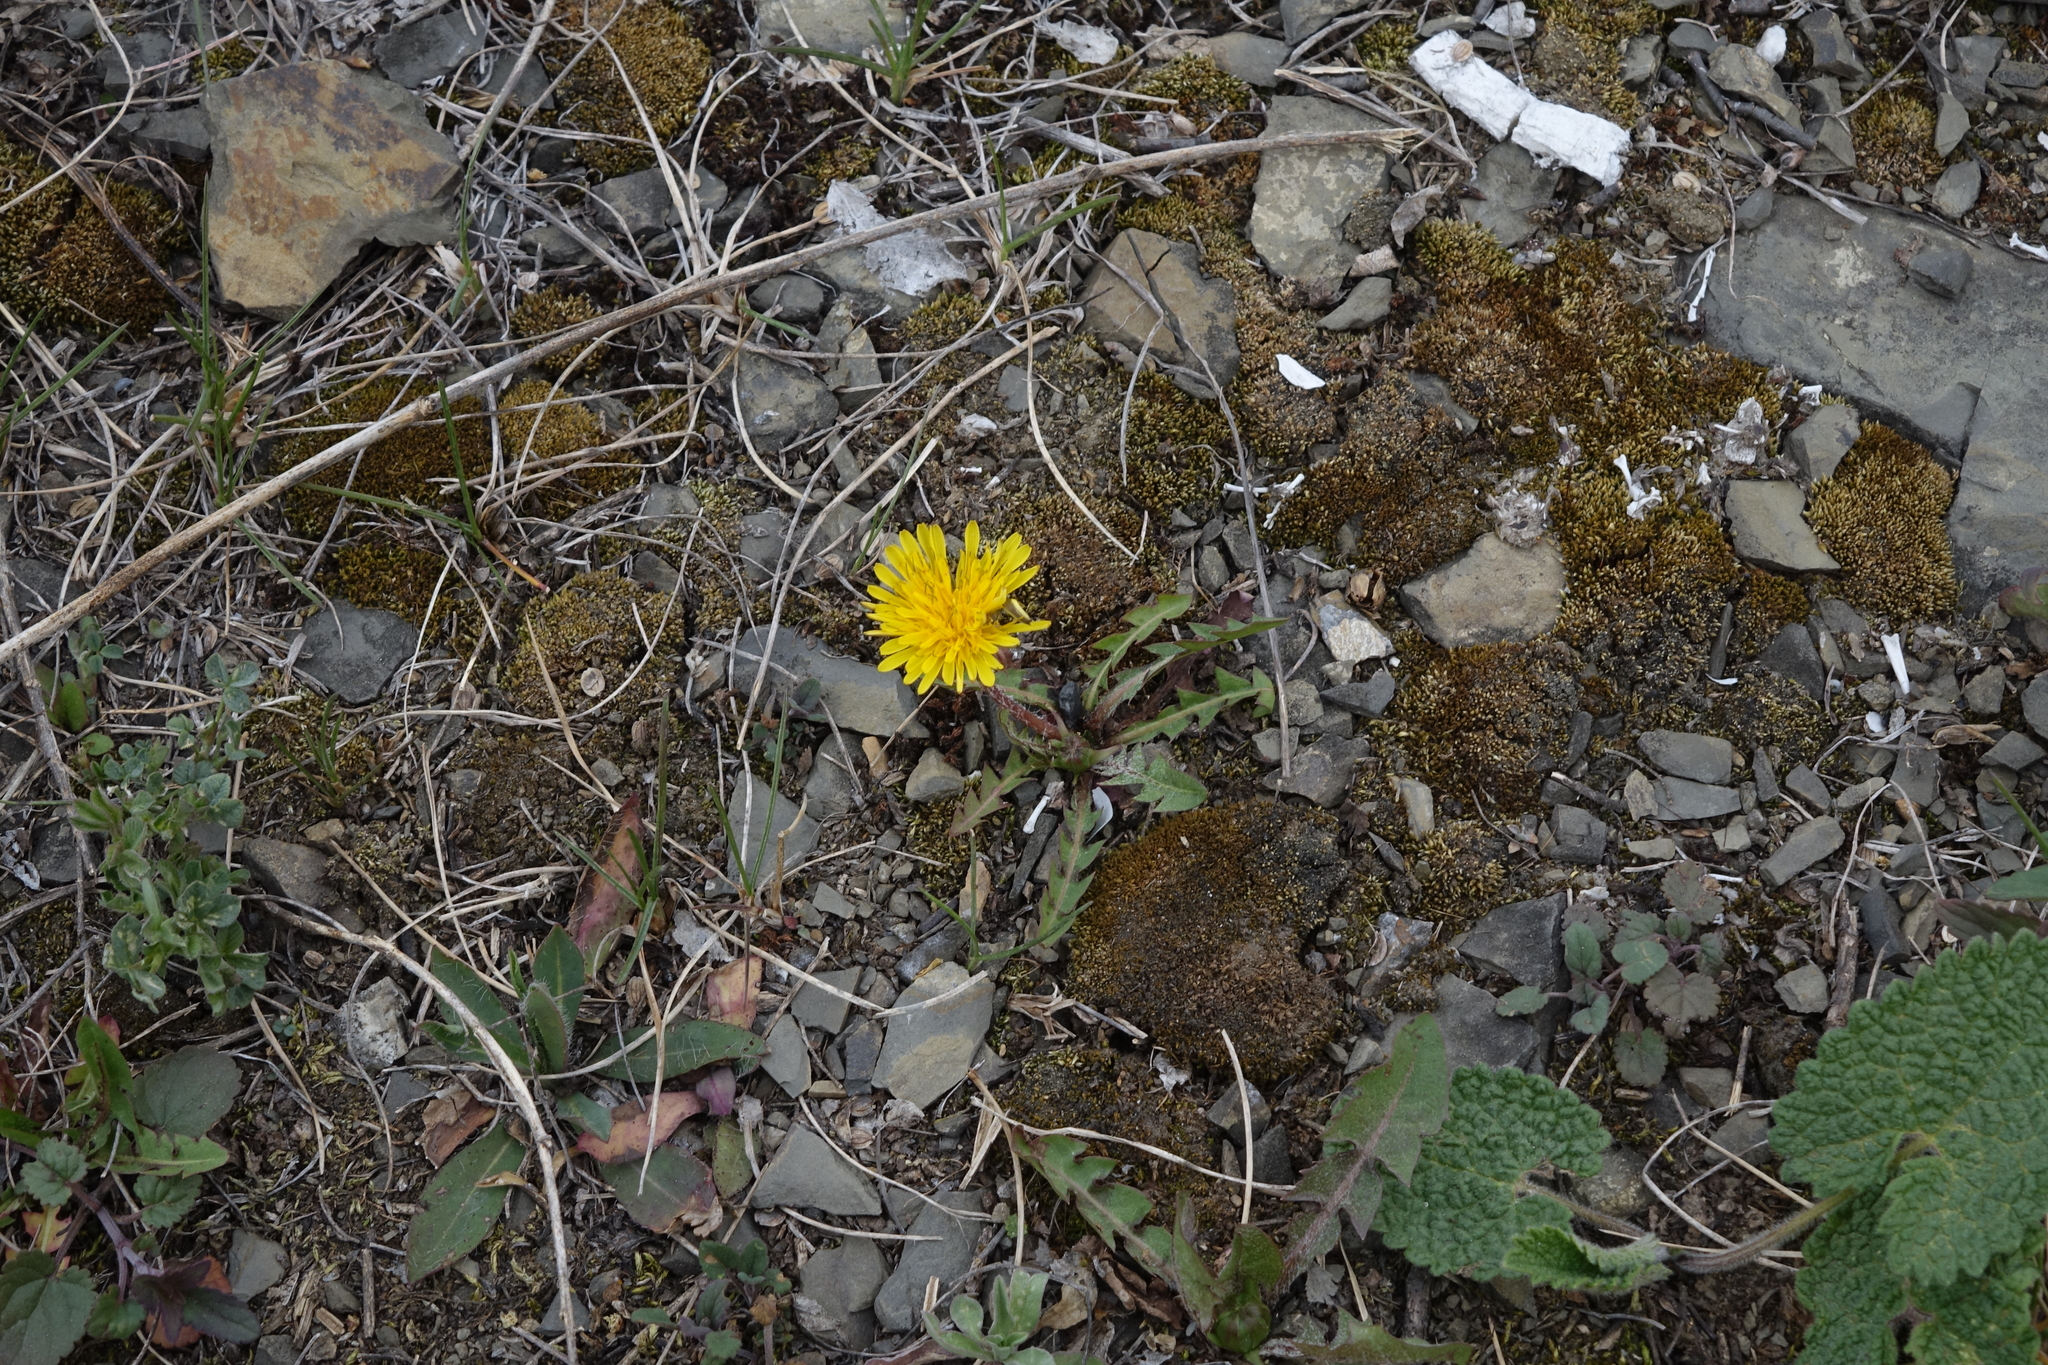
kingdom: Plantae
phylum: Tracheophyta
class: Magnoliopsida
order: Asterales
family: Asteraceae
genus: Taraxacum
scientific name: Taraxacum officinale
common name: Common dandelion
